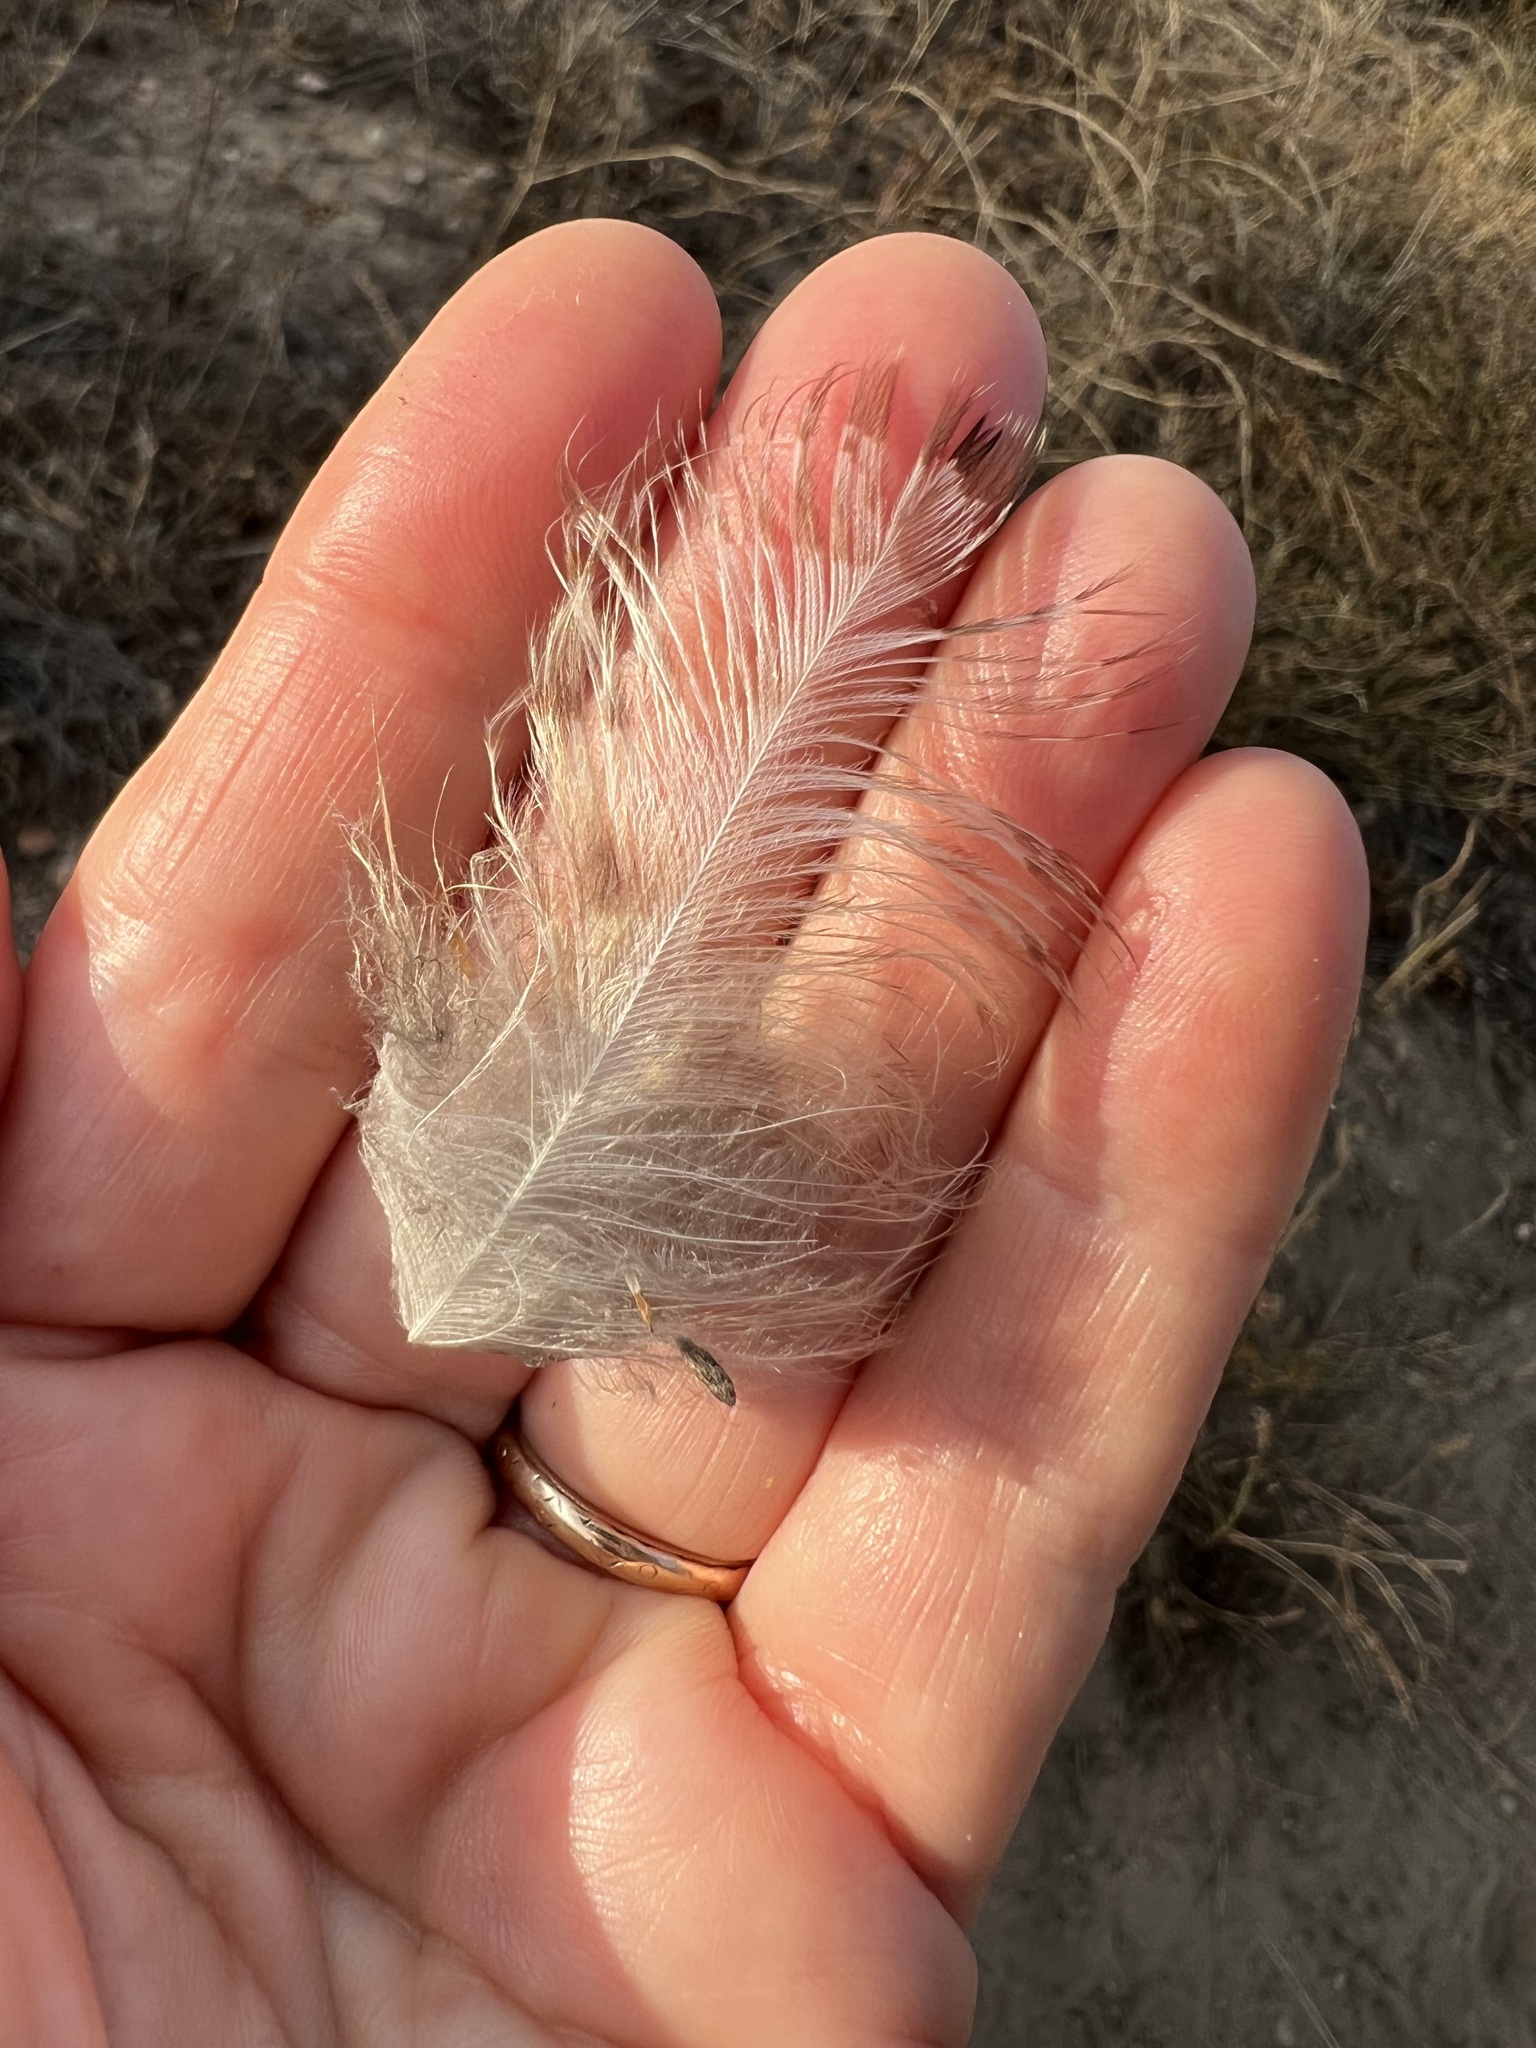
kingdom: Animalia
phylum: Chordata
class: Aves
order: Strigiformes
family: Strigidae
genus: Bubo
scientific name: Bubo virginianus
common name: Great horned owl
